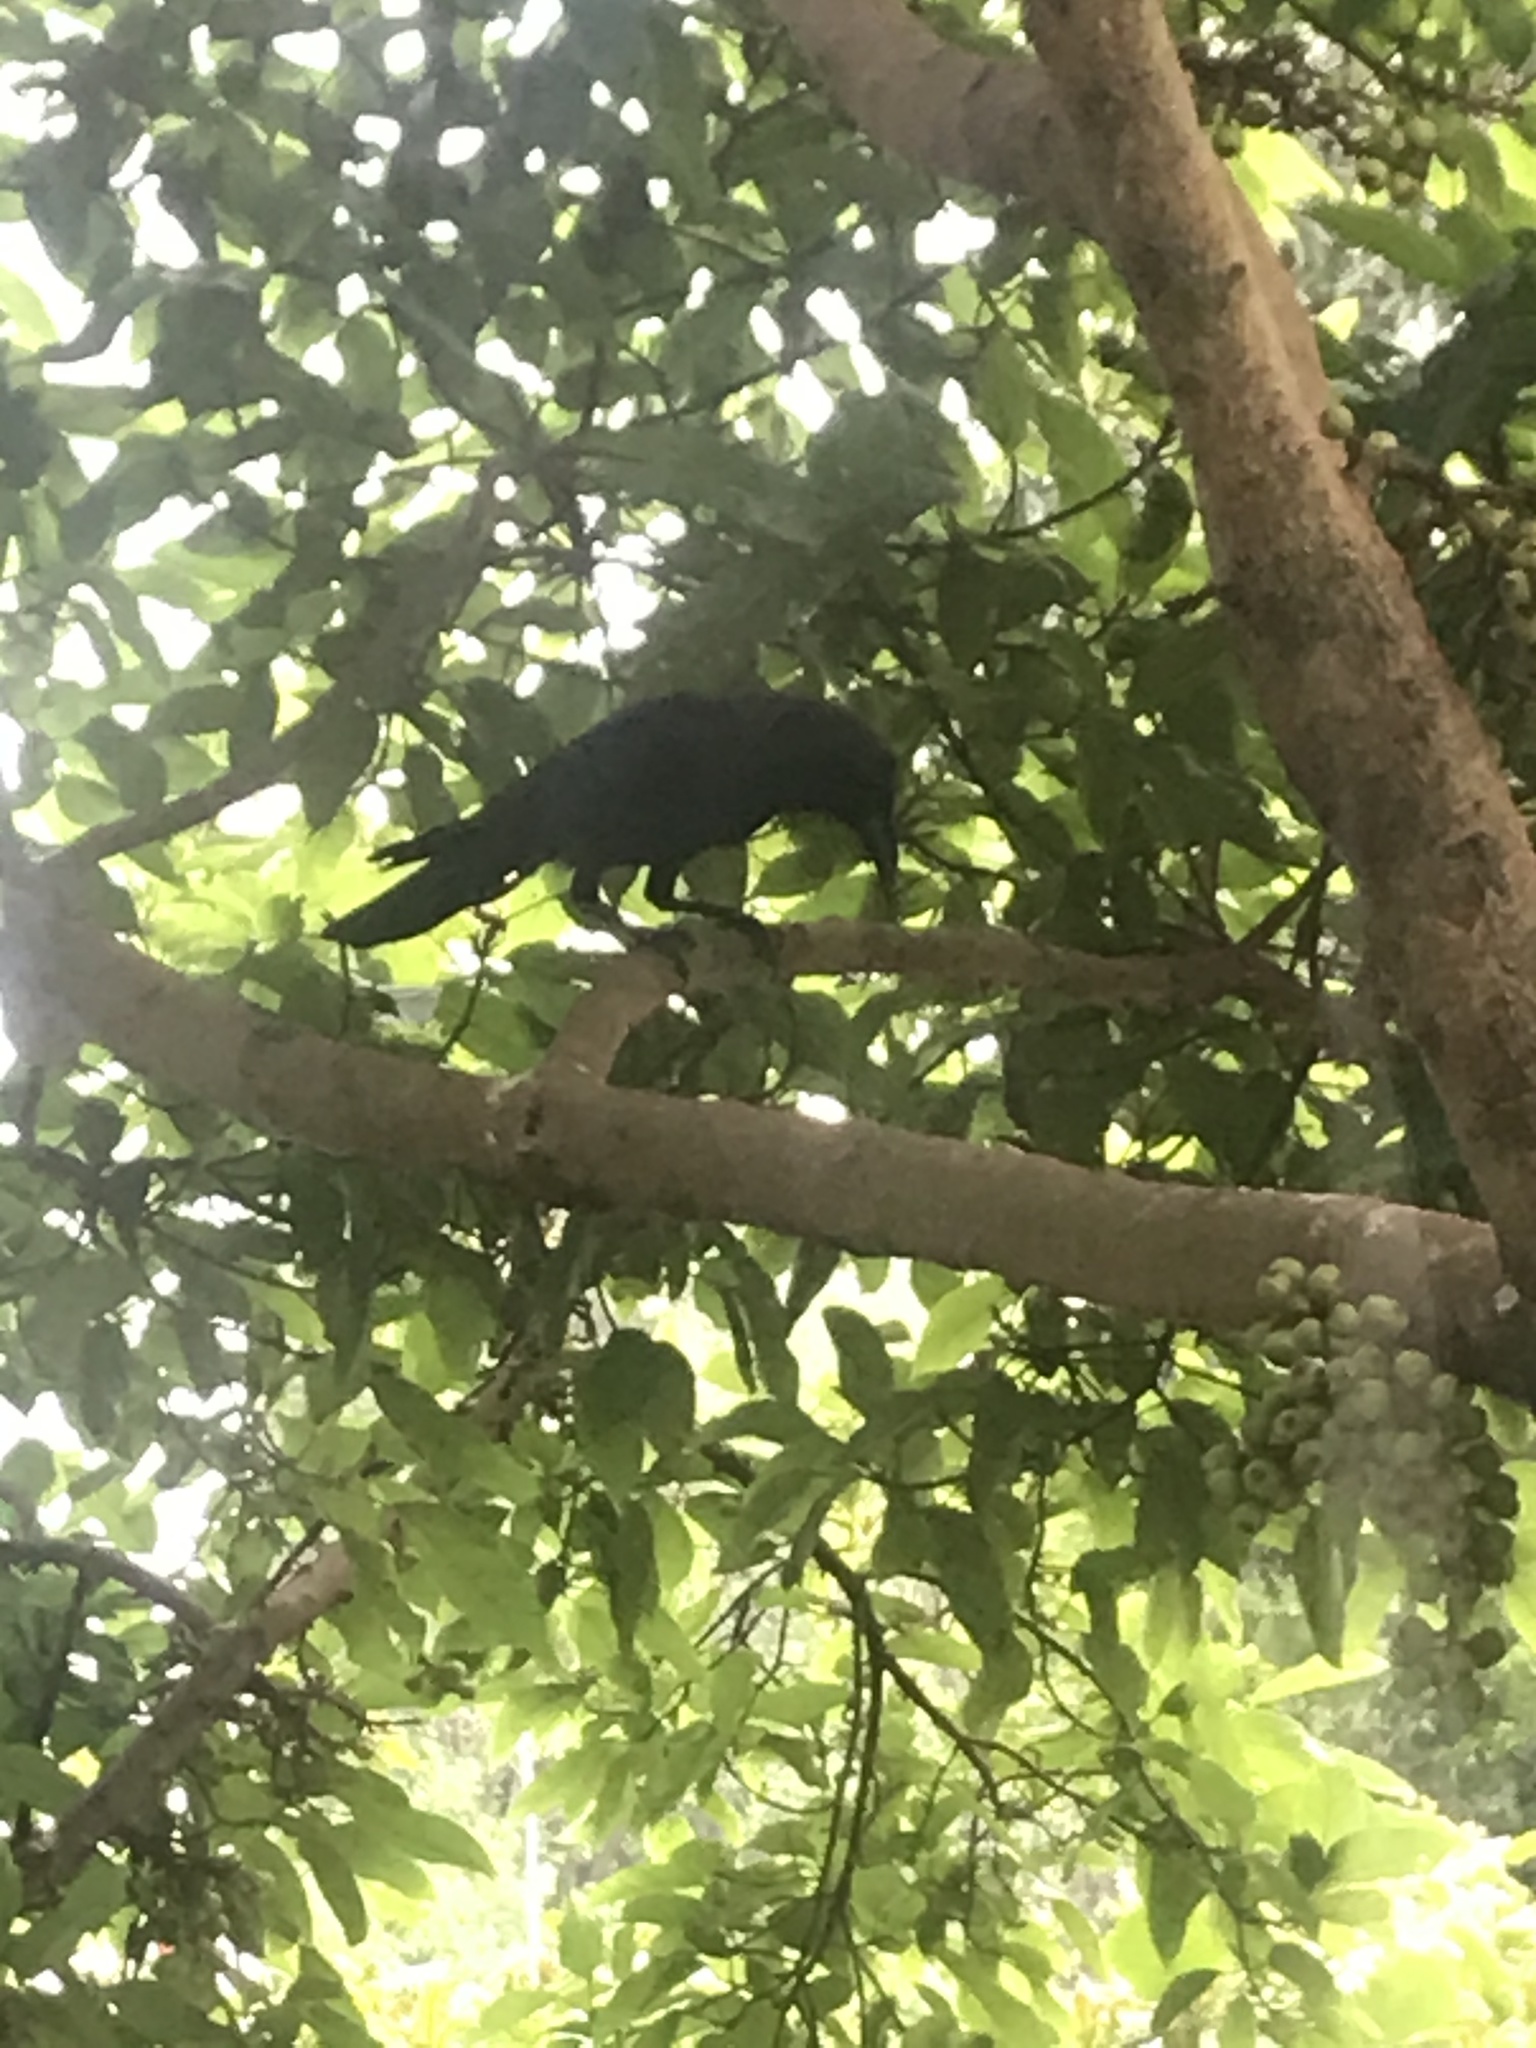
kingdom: Animalia
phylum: Chordata
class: Aves
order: Passeriformes
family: Corvidae
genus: Corvus
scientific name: Corvus splendens
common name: House crow
